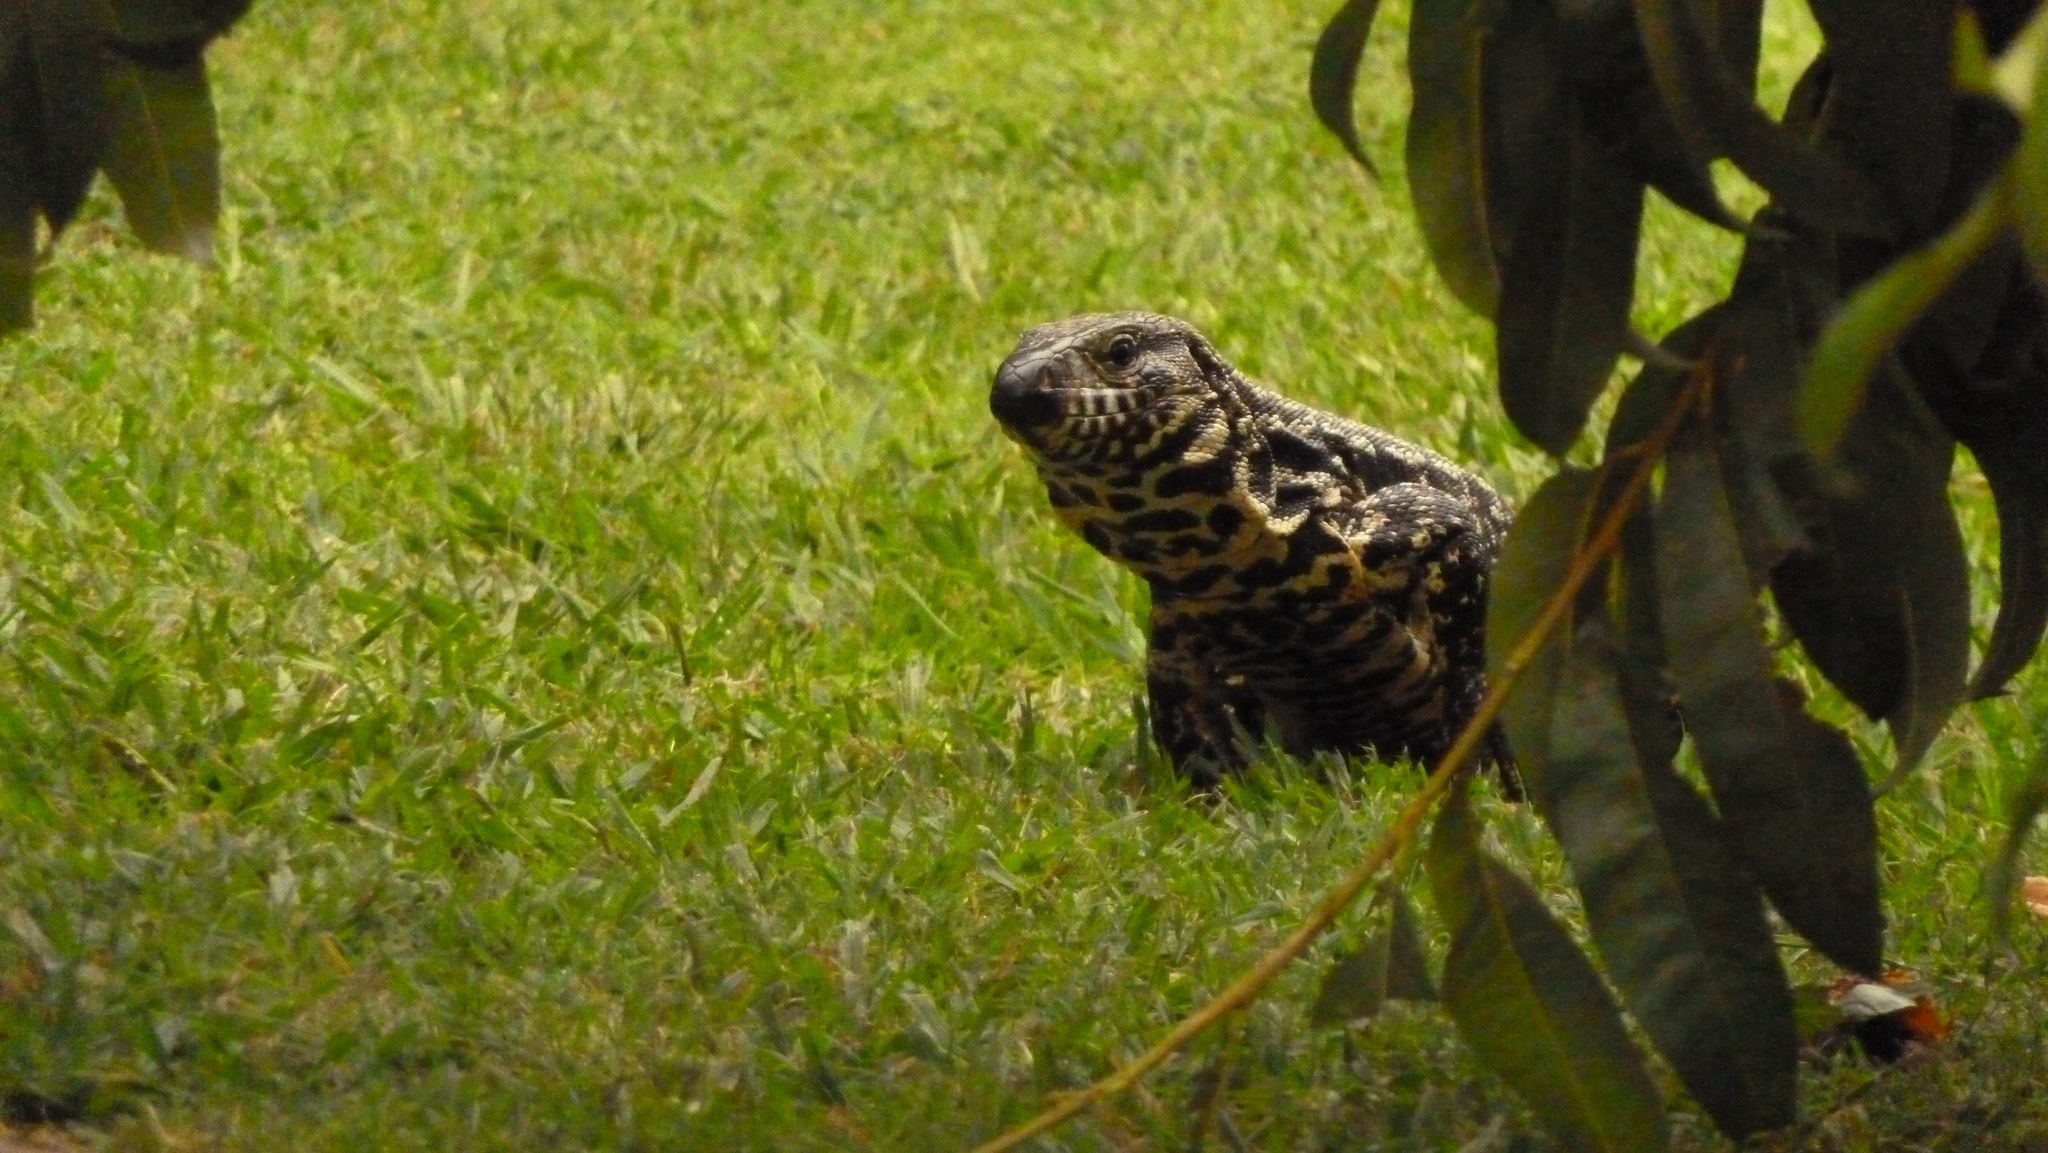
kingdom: Animalia
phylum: Chordata
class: Squamata
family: Teiidae
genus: Salvator
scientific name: Salvator merianae
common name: Argentine black and white tegu
